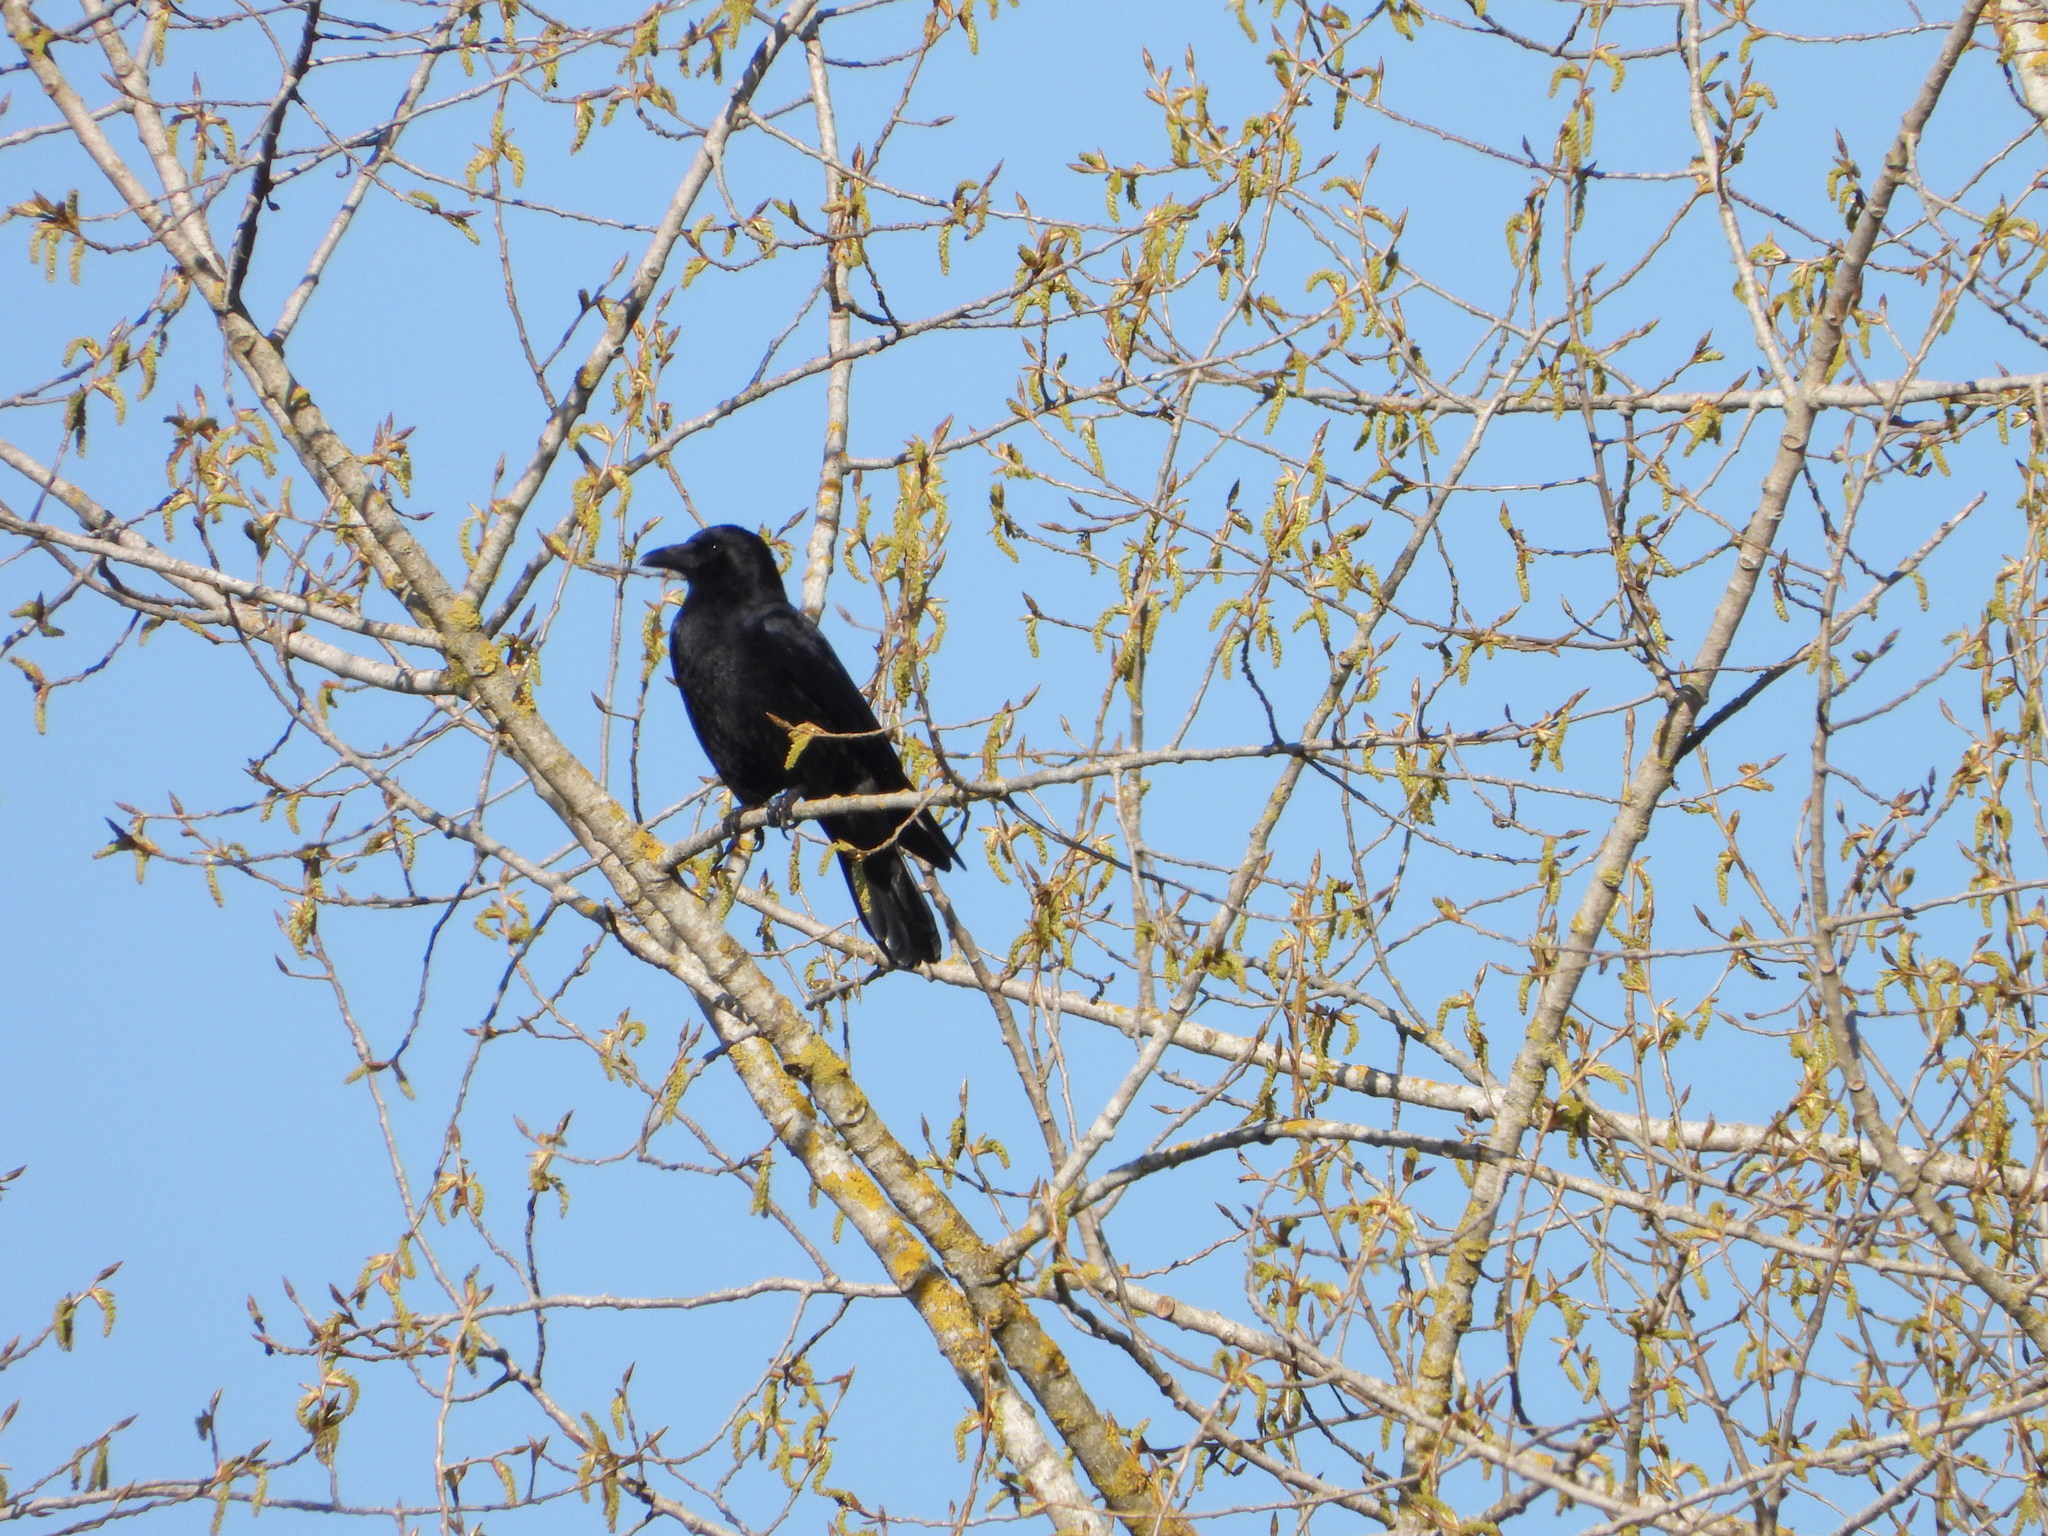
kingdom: Animalia
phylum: Chordata
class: Aves
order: Passeriformes
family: Corvidae
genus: Corvus
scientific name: Corvus corone
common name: Carrion crow
